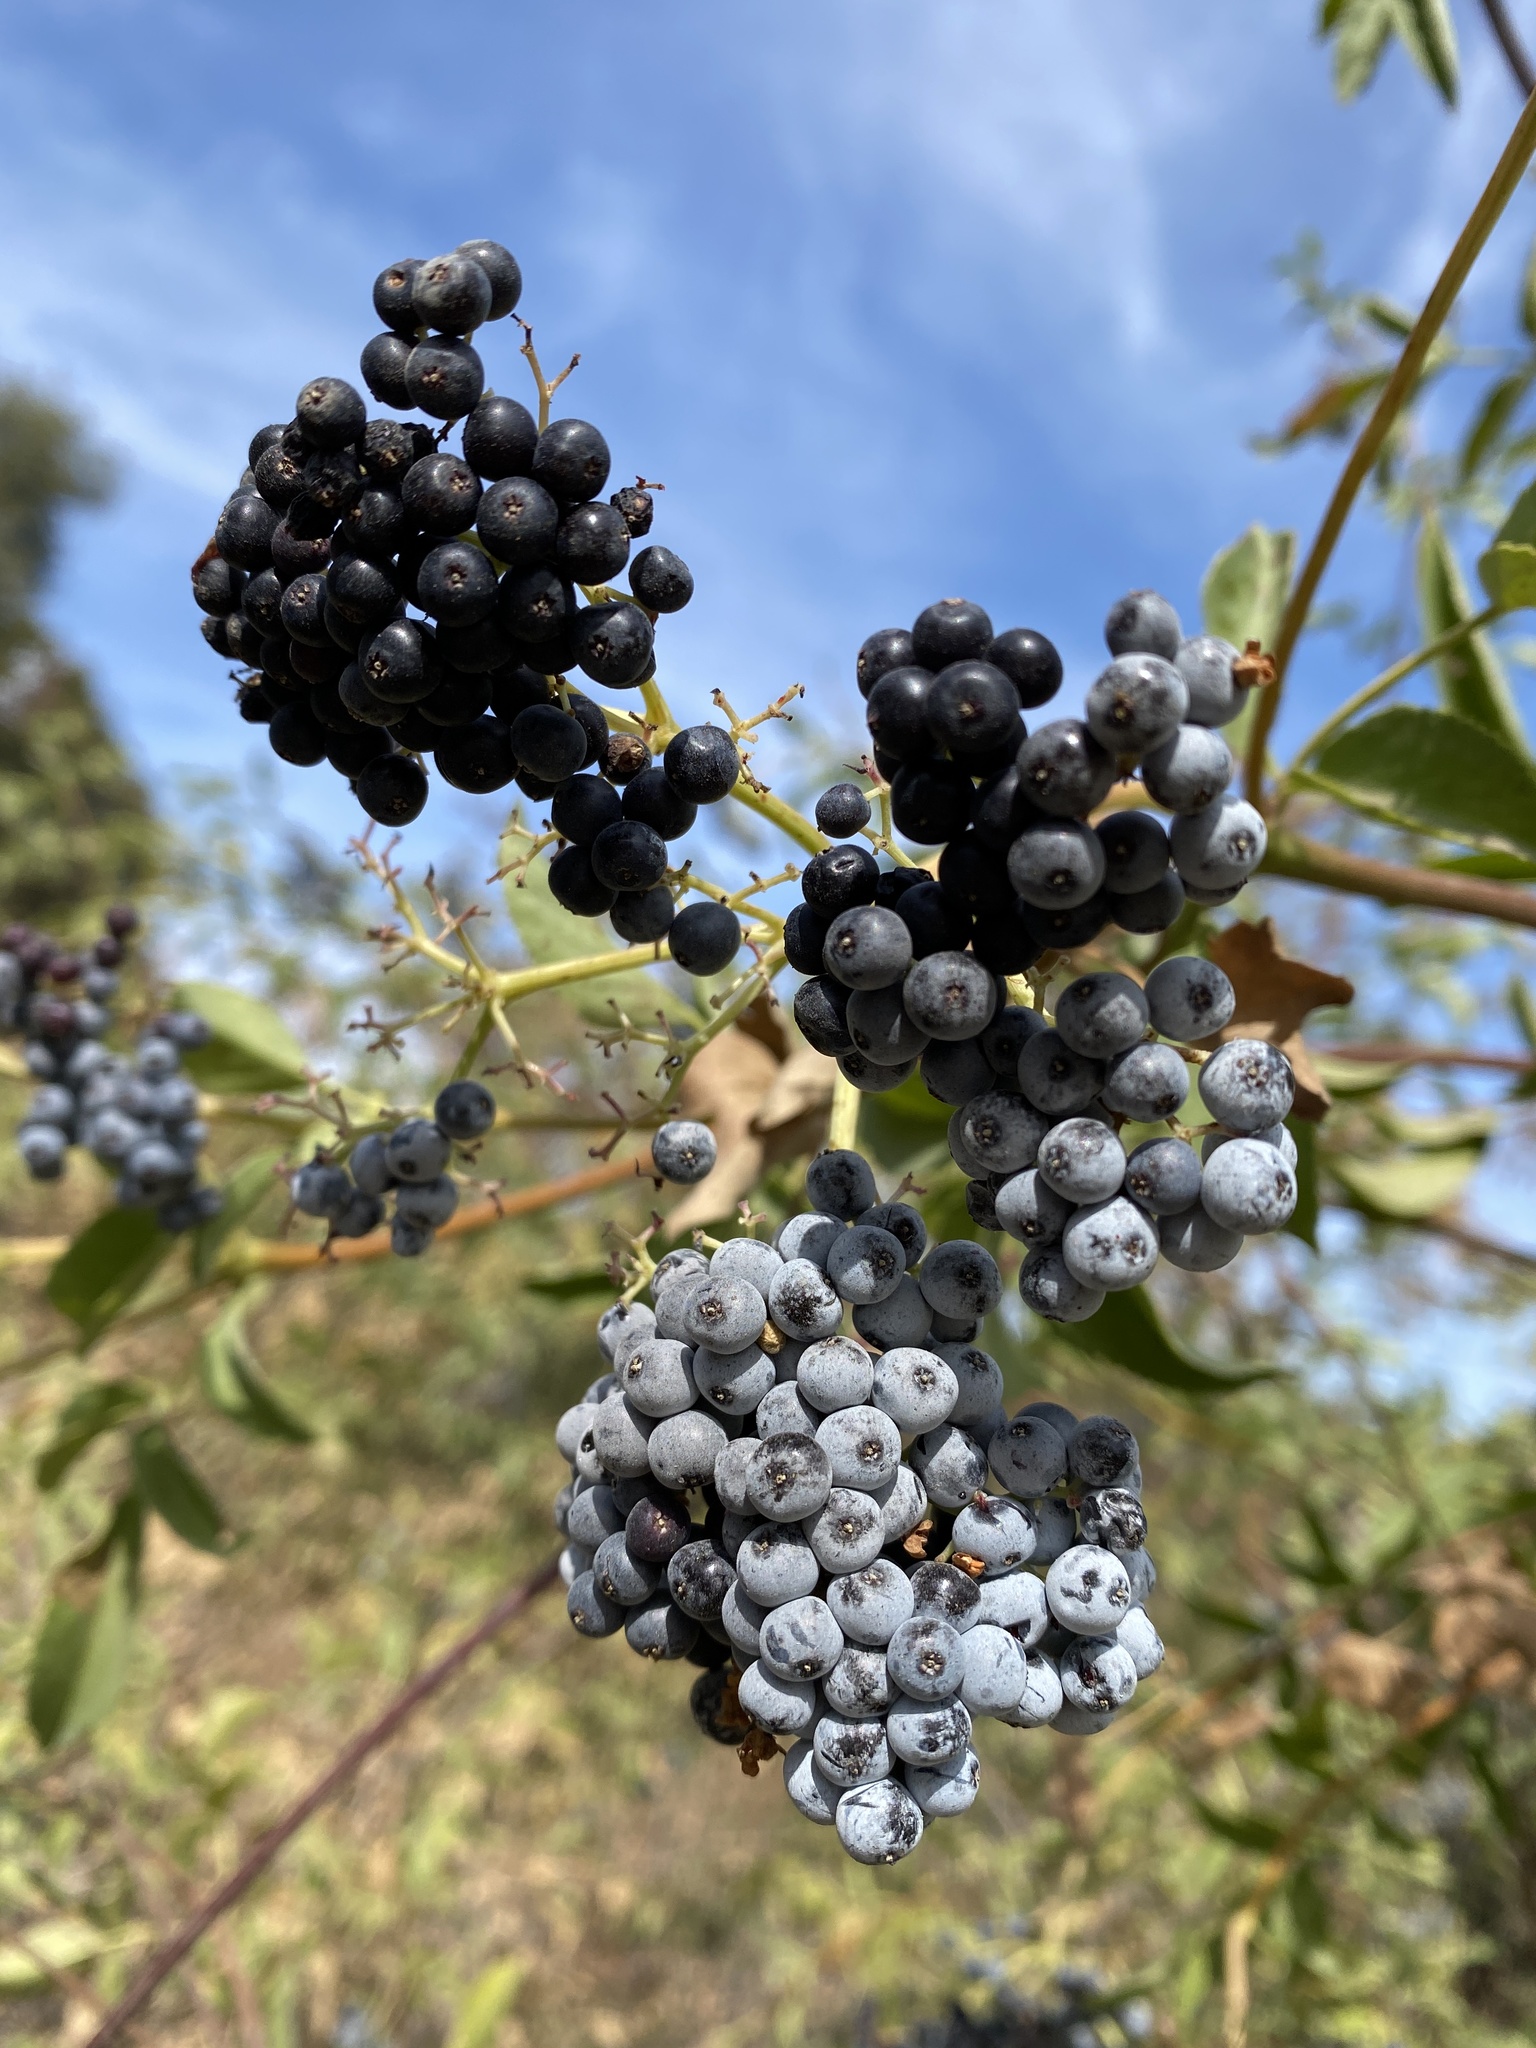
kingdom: Plantae
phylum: Tracheophyta
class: Magnoliopsida
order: Dipsacales
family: Viburnaceae
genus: Sambucus
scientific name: Sambucus cerulea
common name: Blue elder
